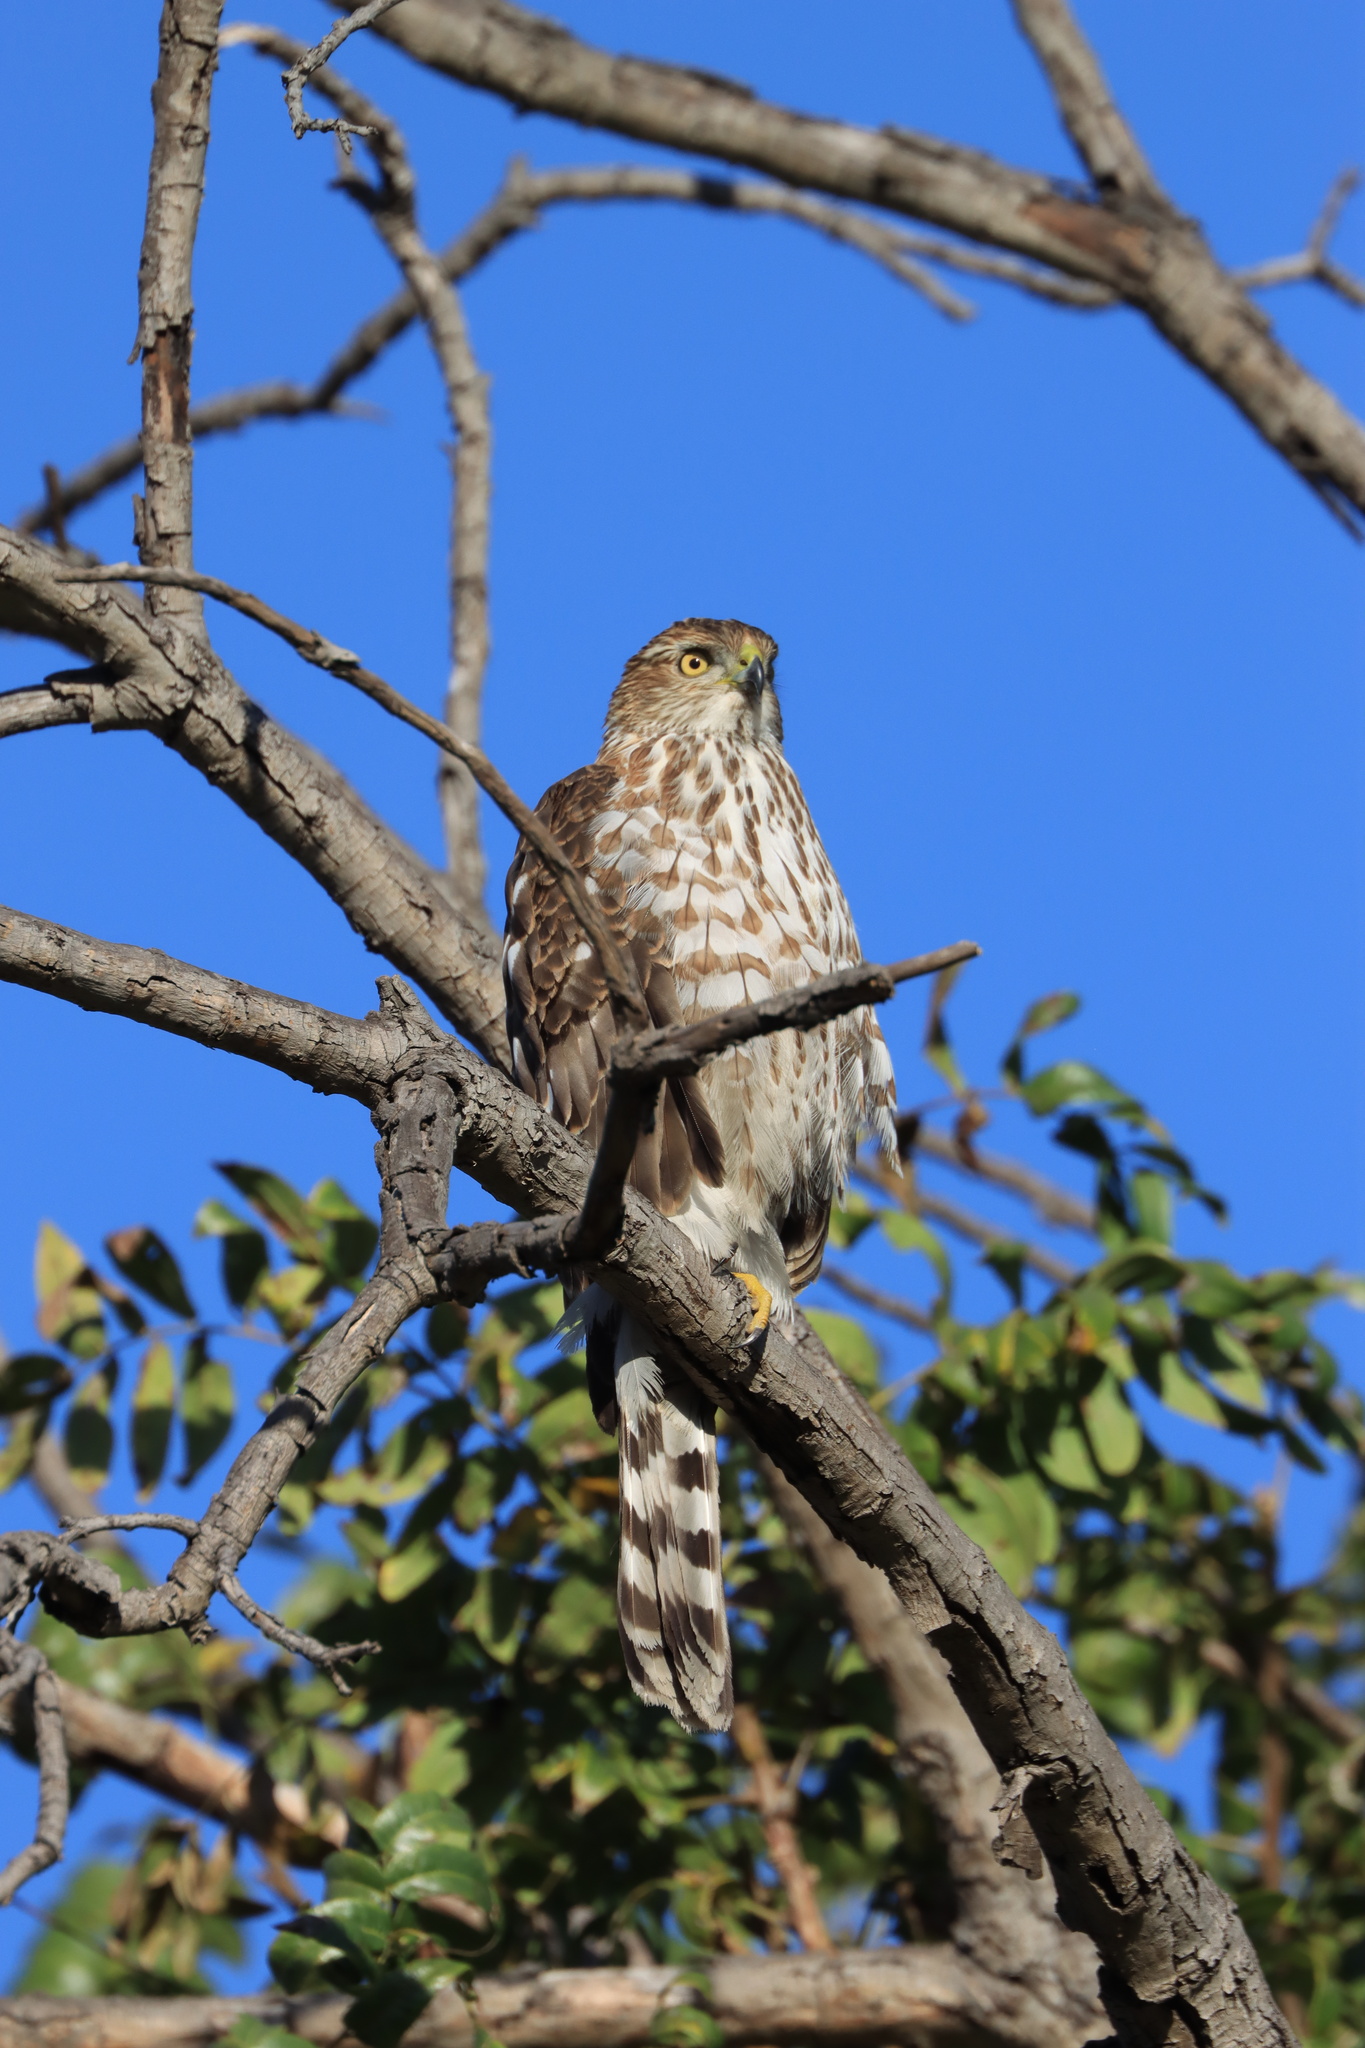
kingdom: Animalia
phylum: Chordata
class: Aves
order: Accipitriformes
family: Accipitridae
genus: Accipiter
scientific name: Accipiter cooperii
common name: Cooper's hawk
